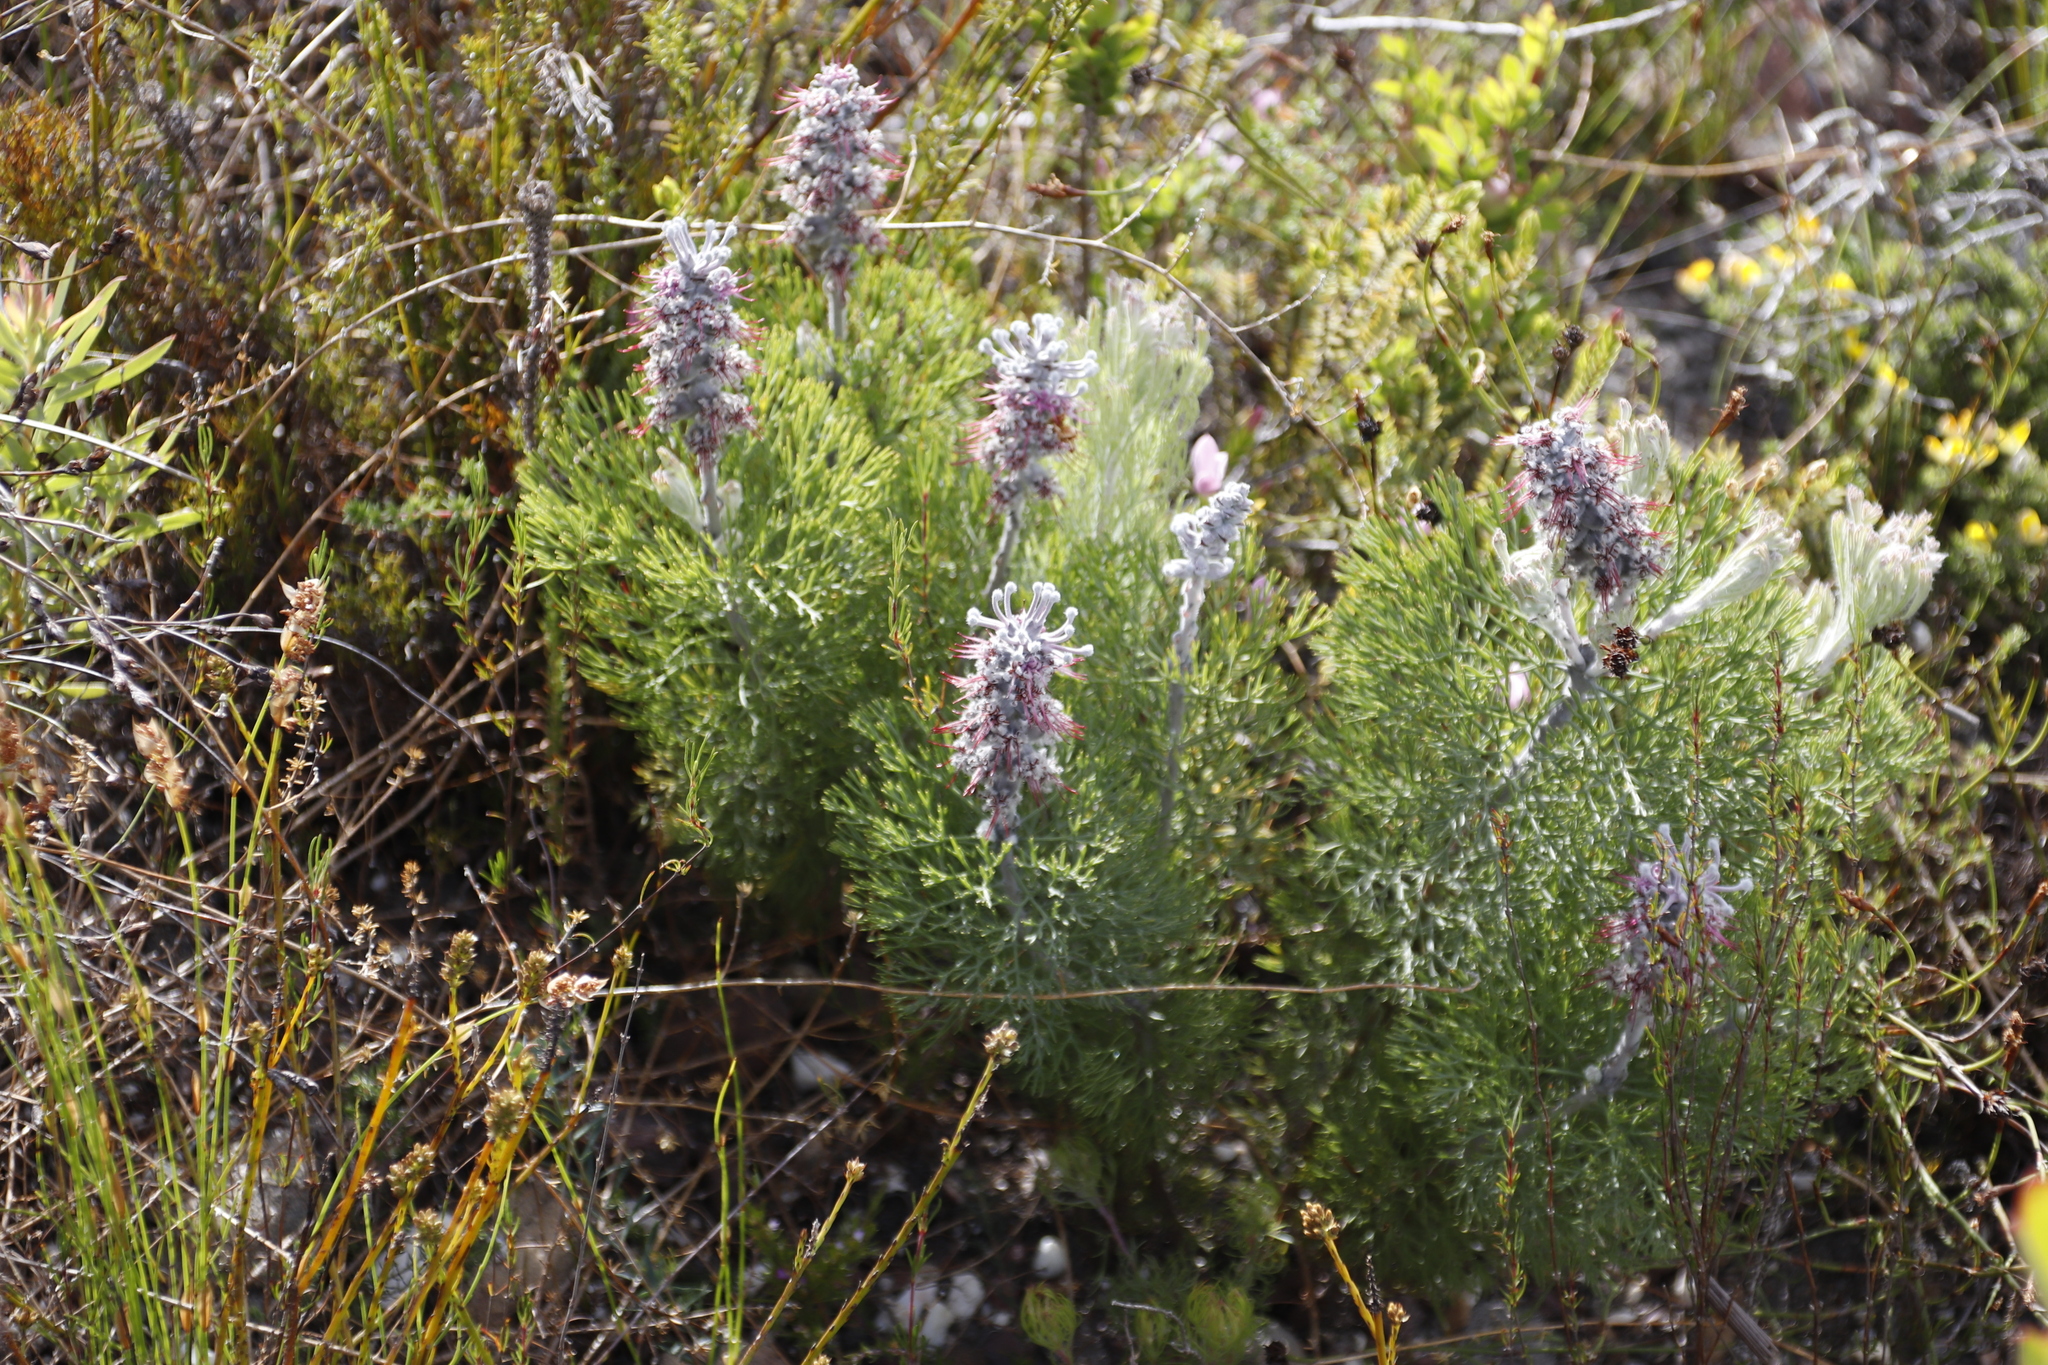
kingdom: Plantae
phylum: Tracheophyta
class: Magnoliopsida
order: Proteales
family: Proteaceae
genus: Paranomus
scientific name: Paranomus bolusii
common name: Overberg sceptre
